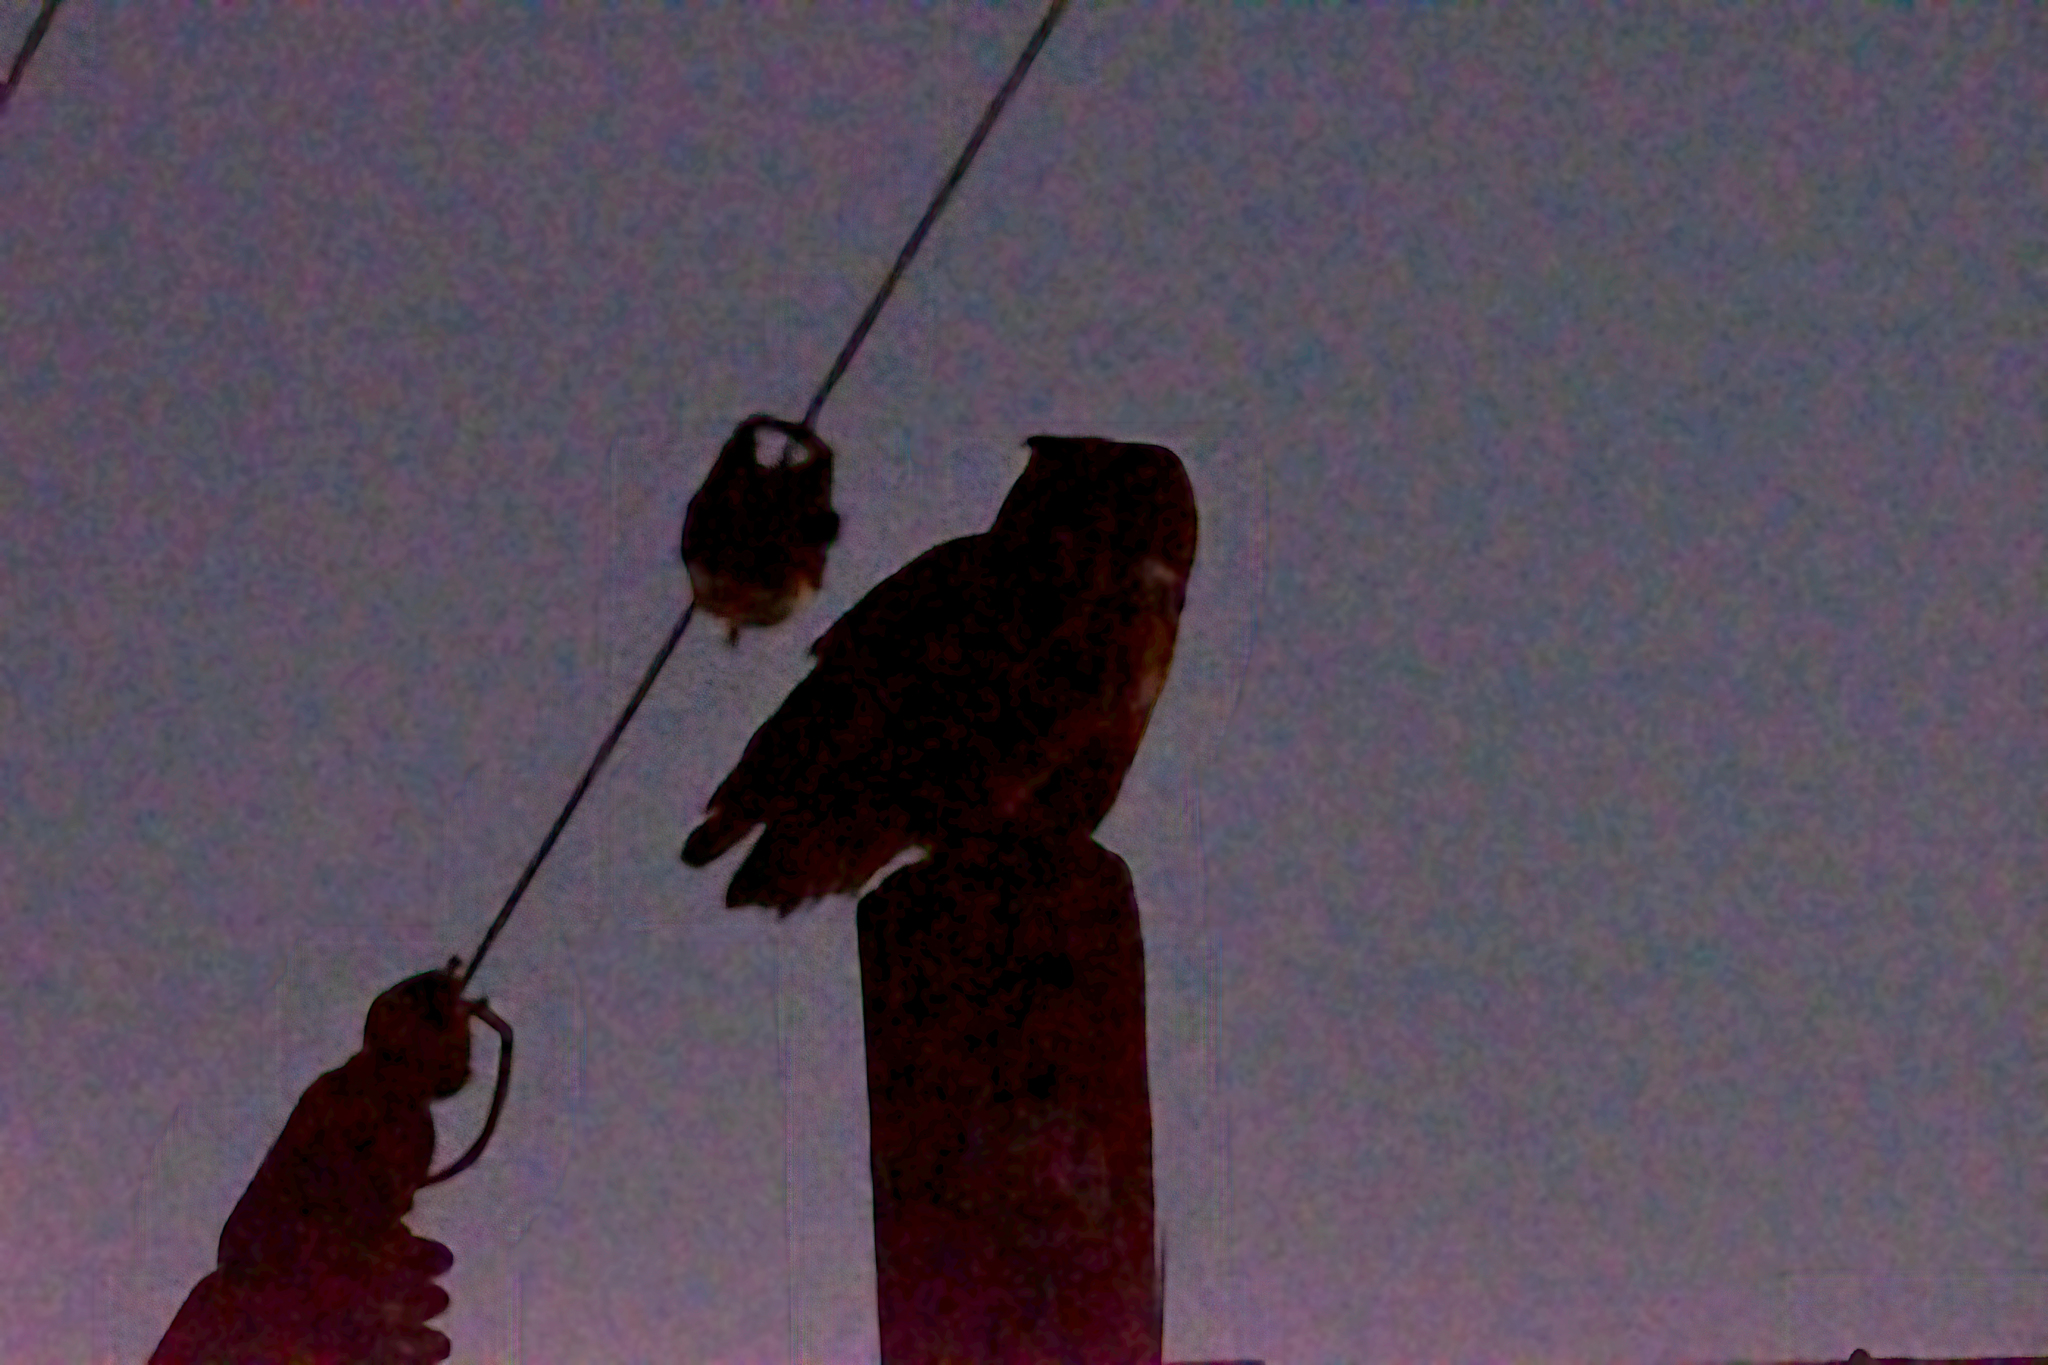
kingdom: Animalia
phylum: Chordata
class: Aves
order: Strigiformes
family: Strigidae
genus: Bubo
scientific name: Bubo virginianus
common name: Great horned owl
